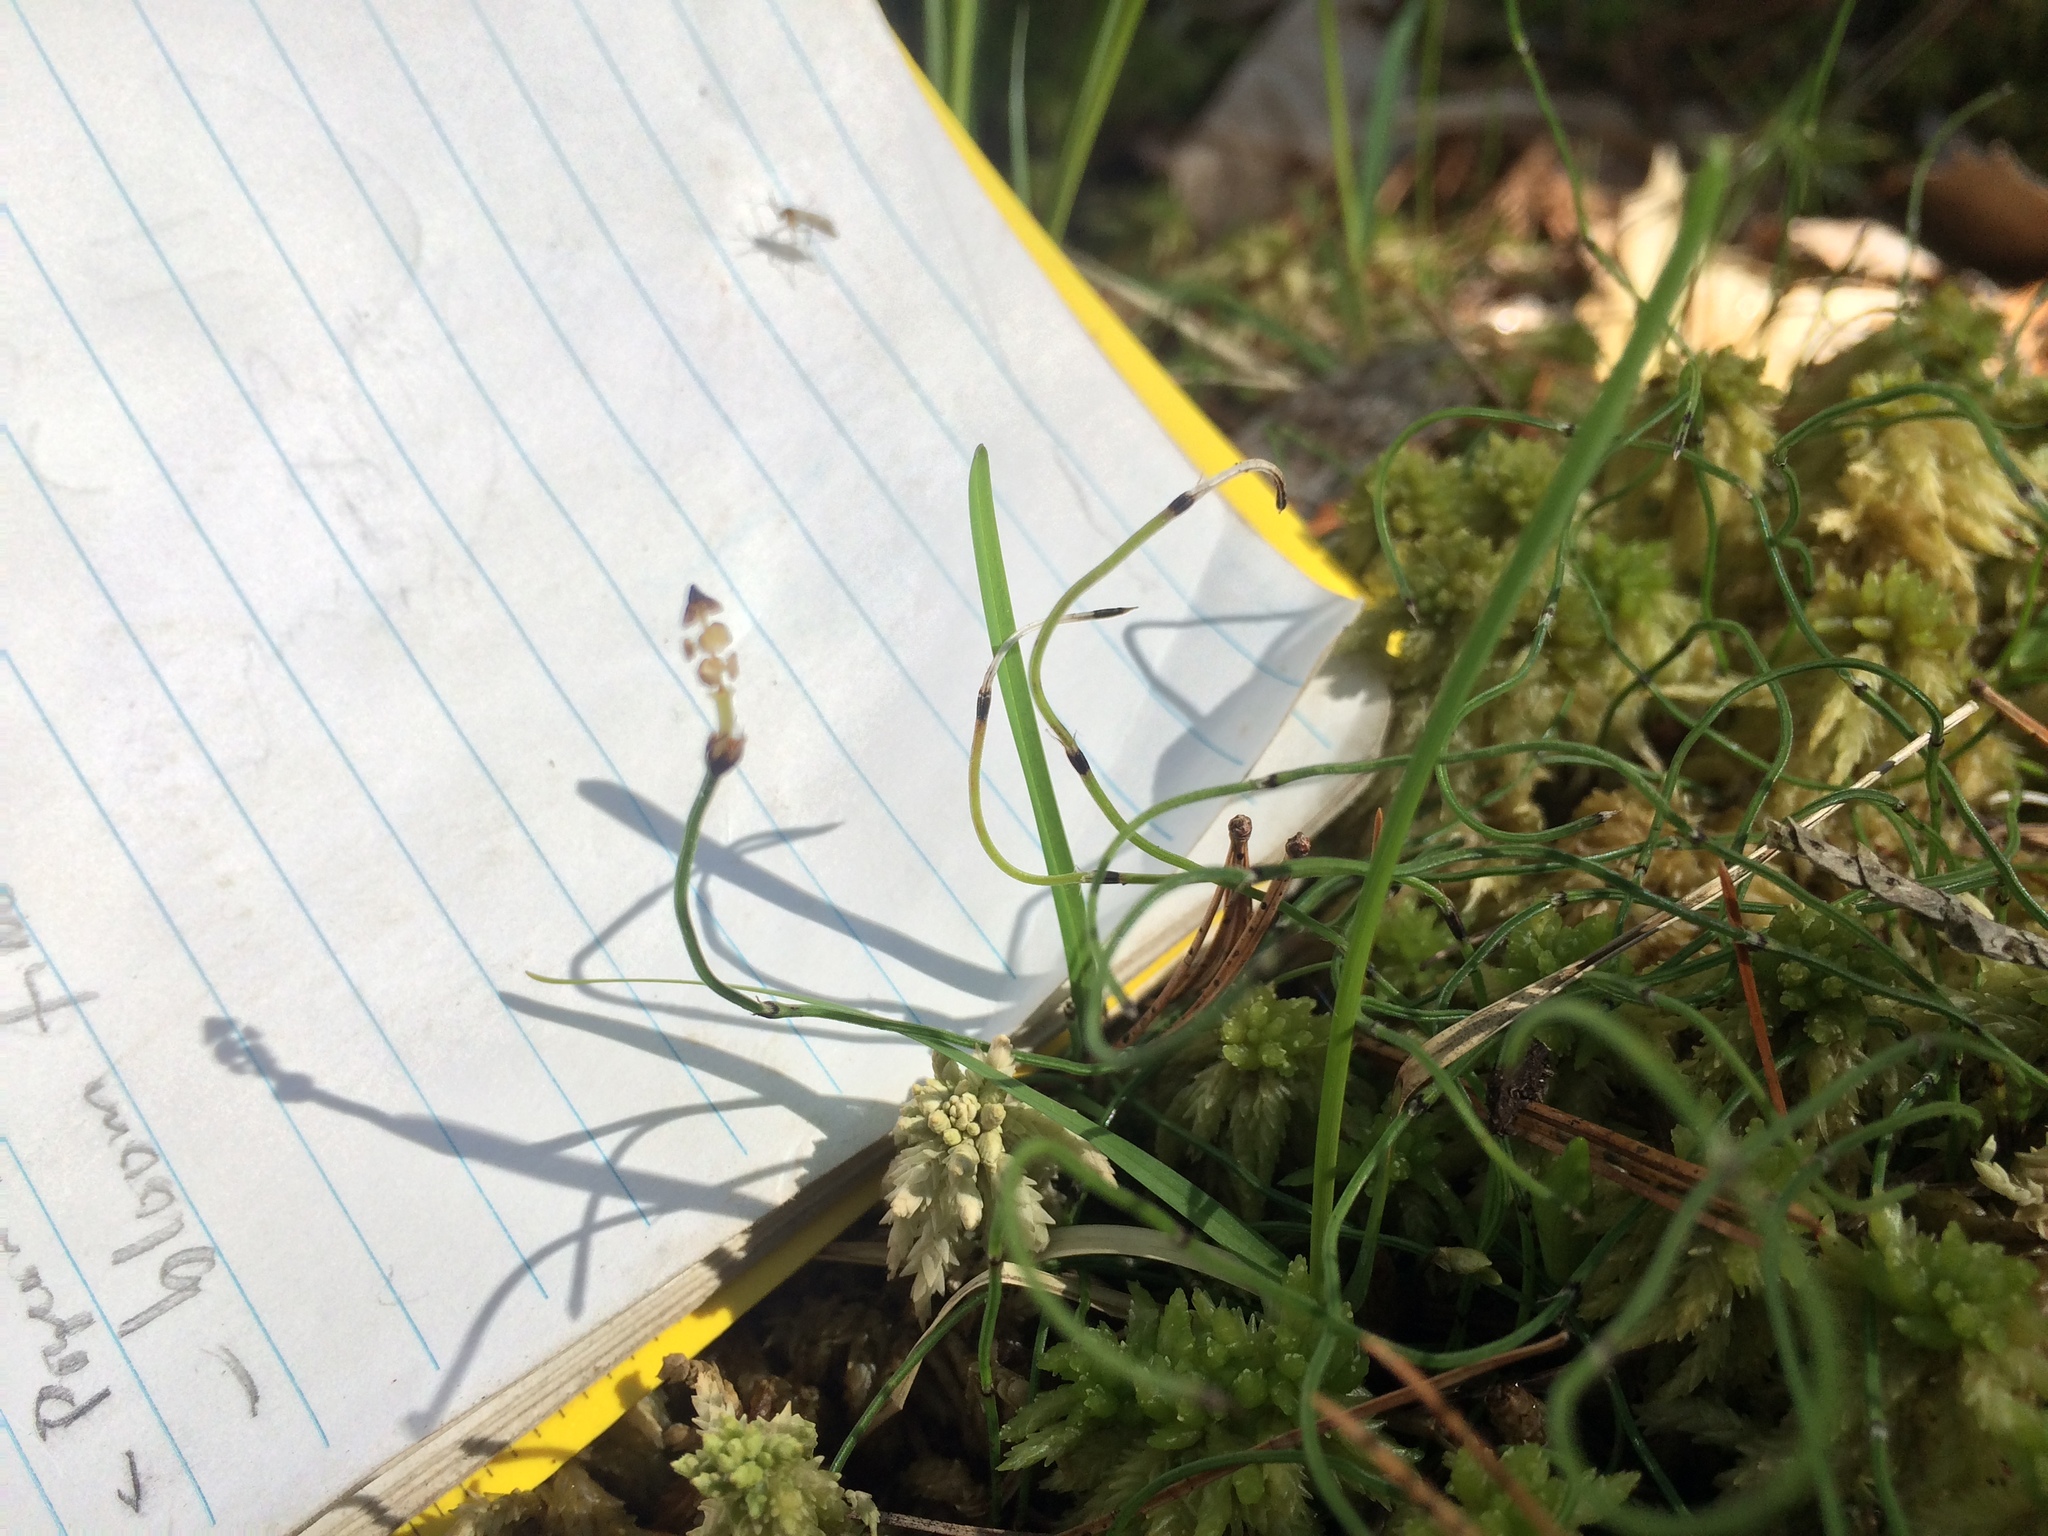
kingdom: Plantae
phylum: Tracheophyta
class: Polypodiopsida
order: Equisetales
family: Equisetaceae
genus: Equisetum
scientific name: Equisetum scirpoides
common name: Delicate horsetail
